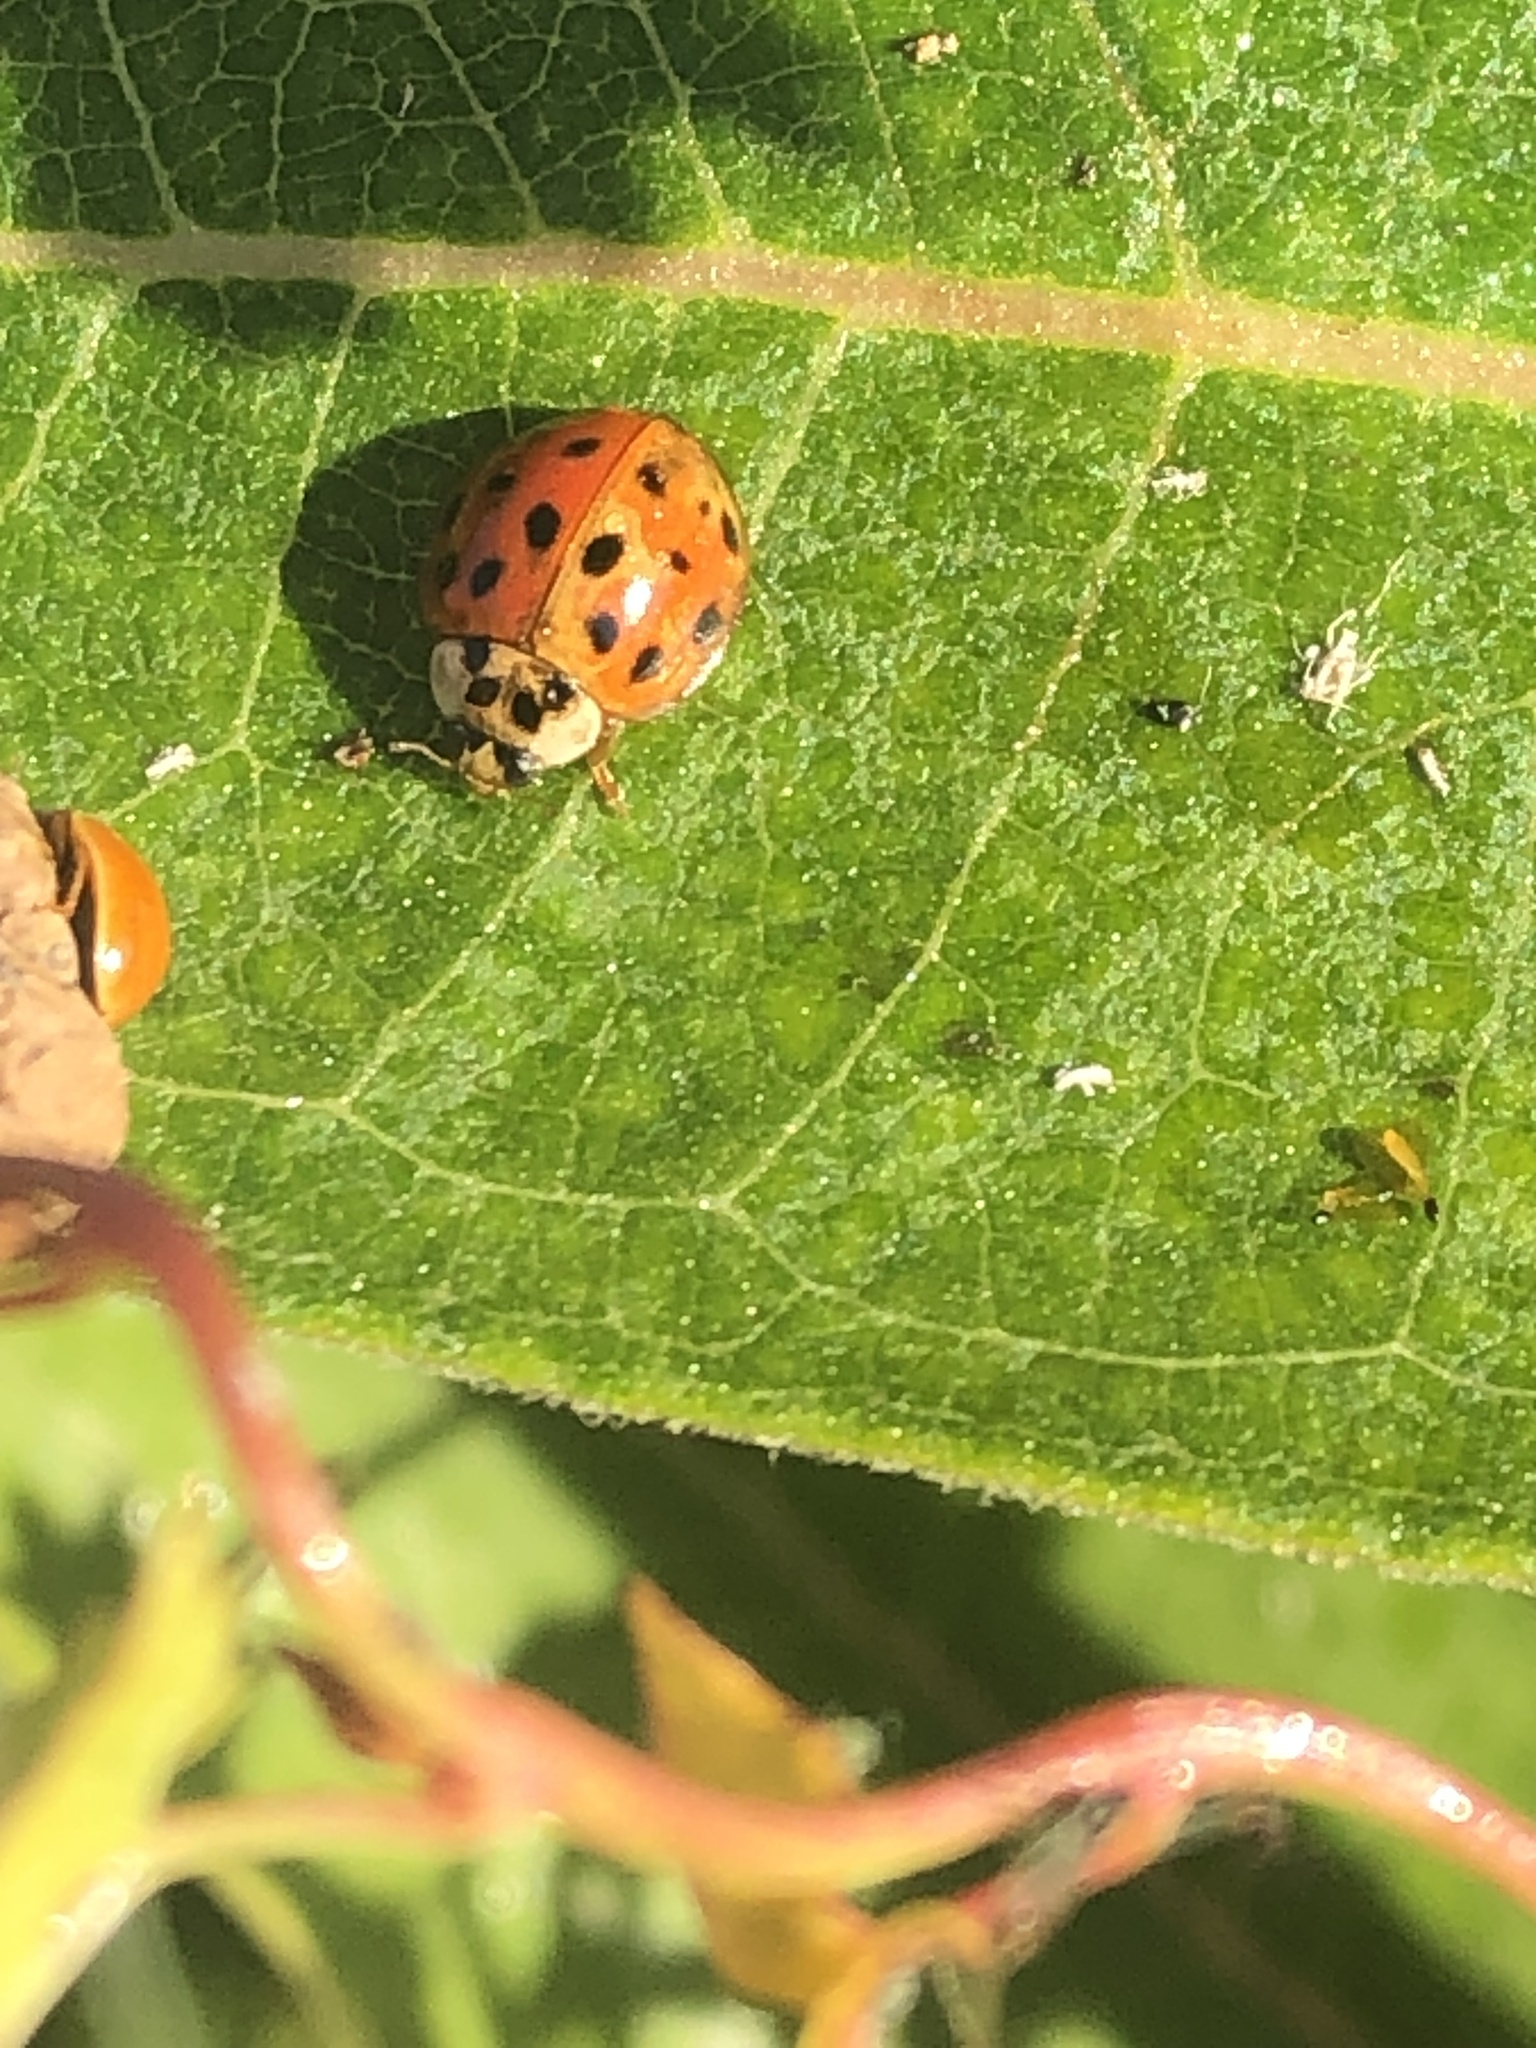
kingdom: Animalia
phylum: Arthropoda
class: Insecta
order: Coleoptera
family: Coccinellidae
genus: Harmonia
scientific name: Harmonia axyridis
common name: Harlequin ladybird
